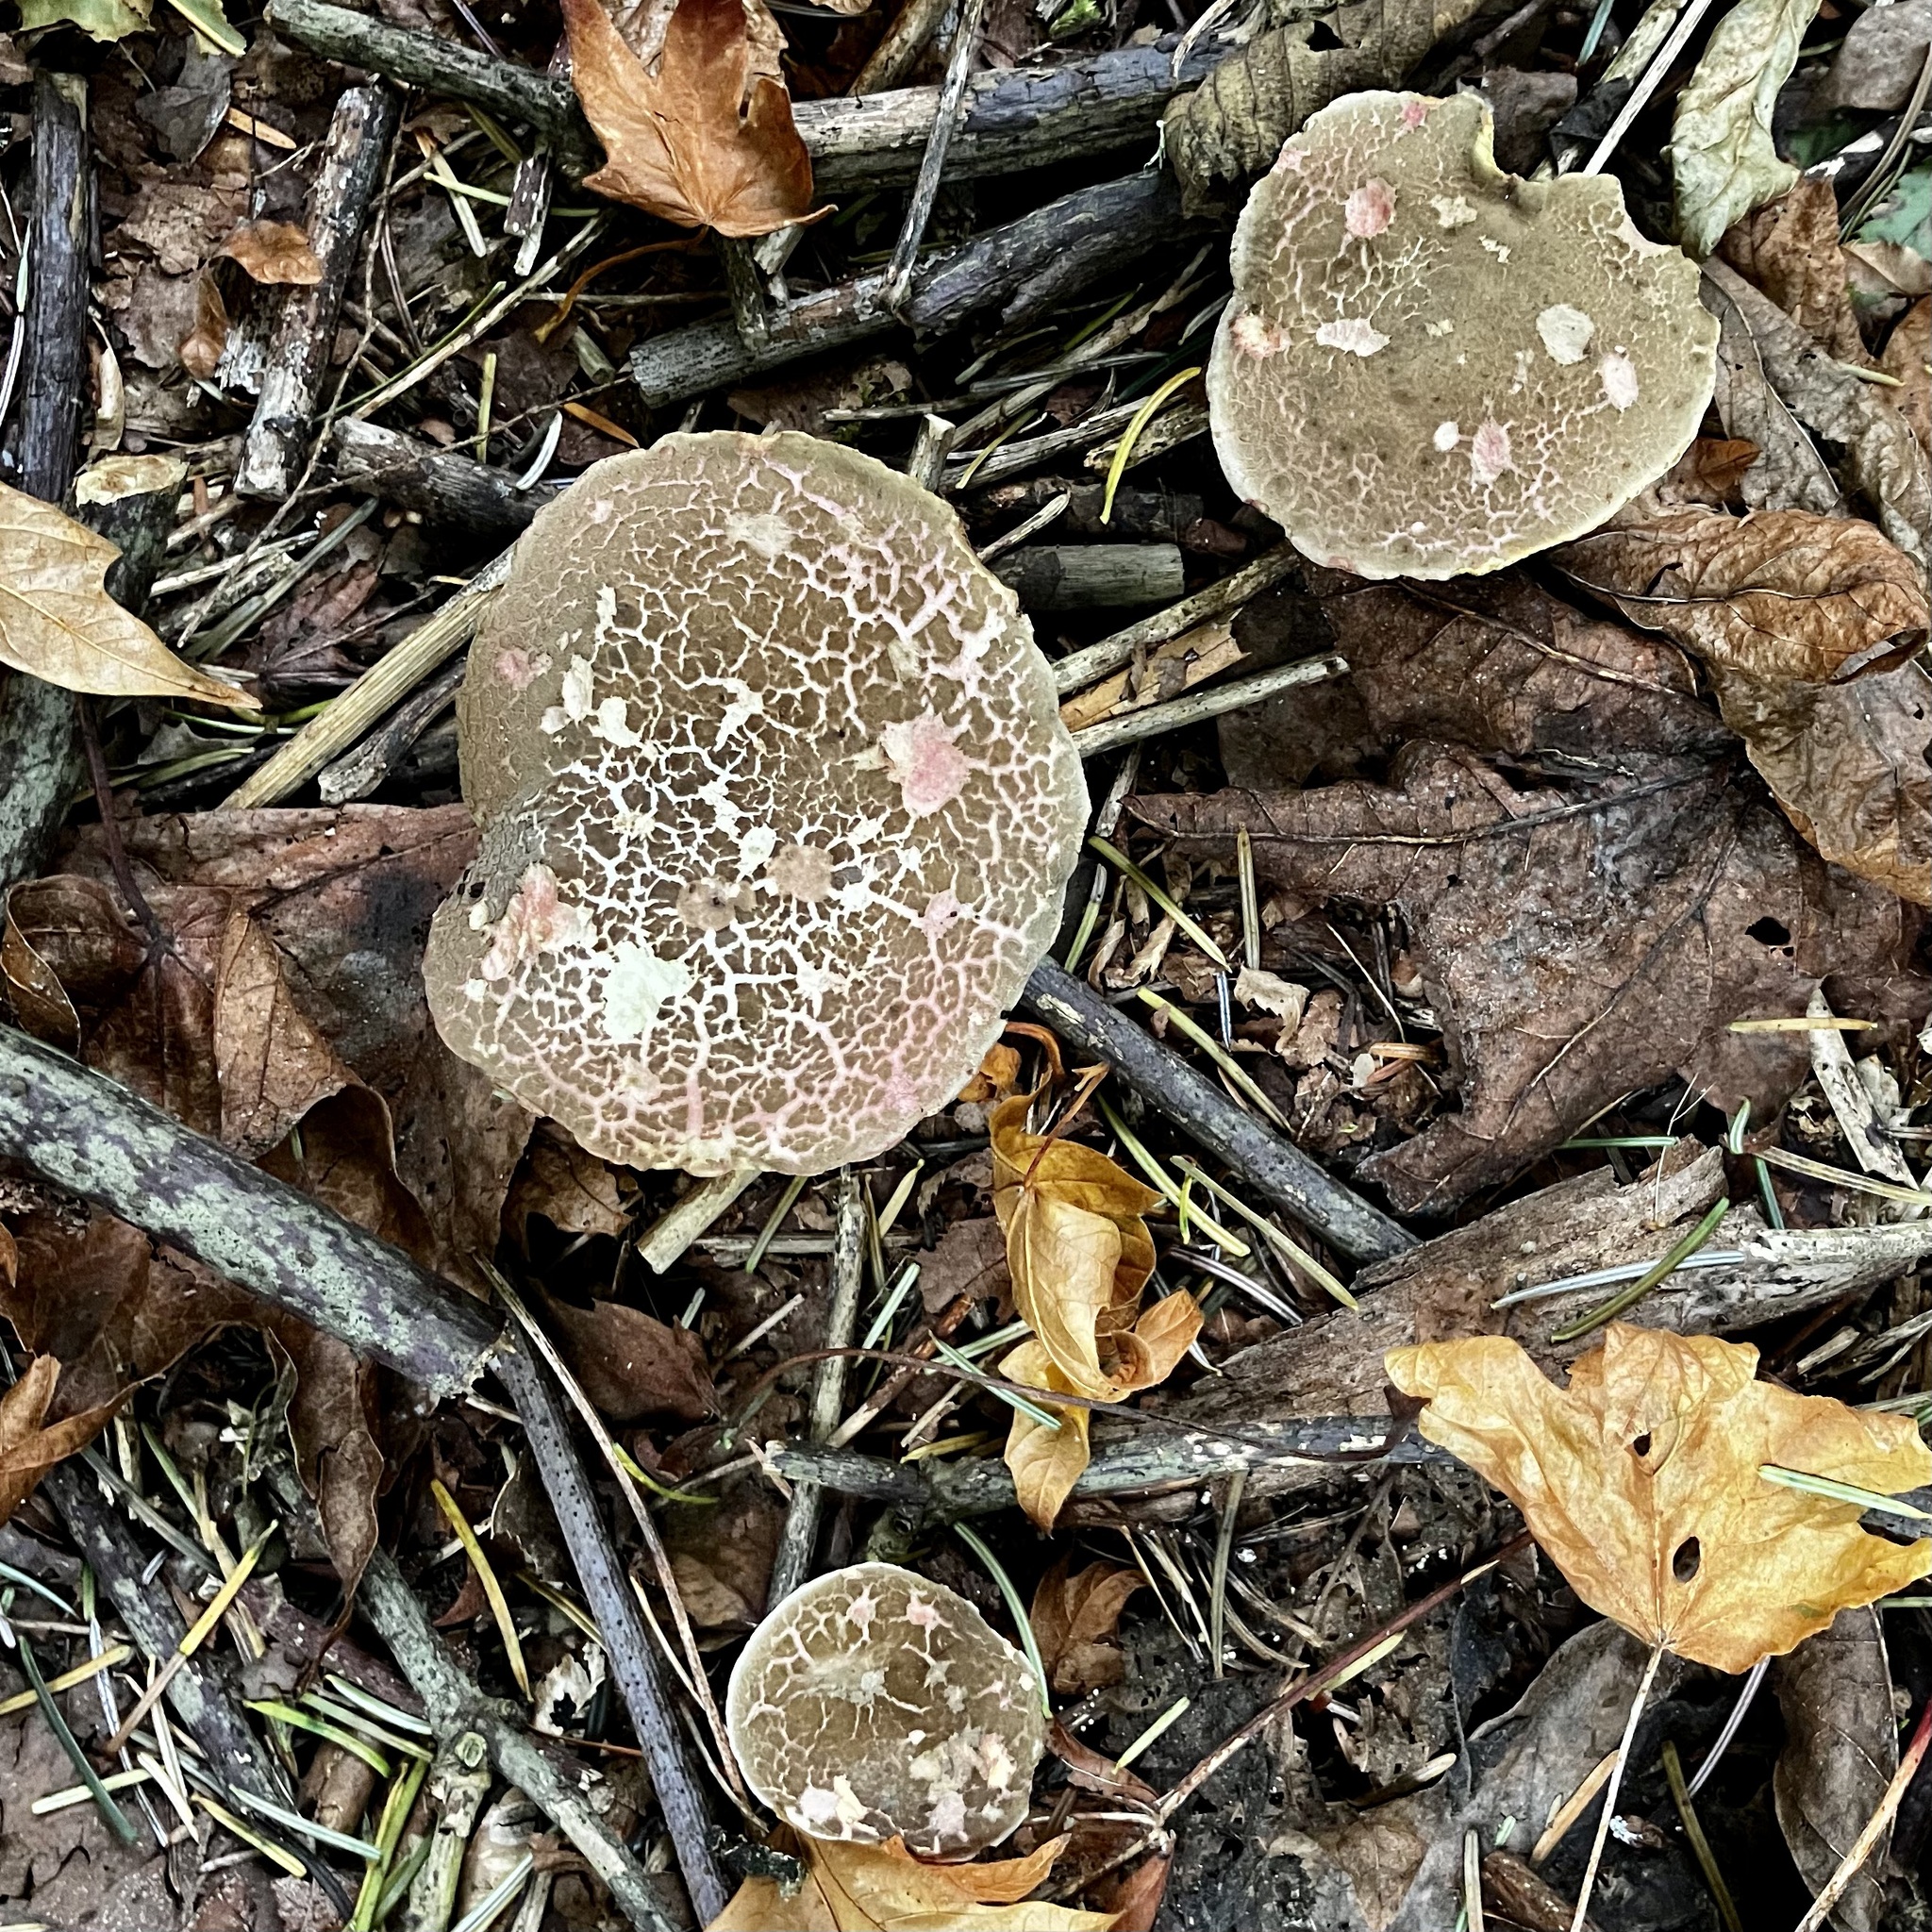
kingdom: Fungi
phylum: Basidiomycota
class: Agaricomycetes
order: Boletales
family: Boletaceae
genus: Xerocomellus
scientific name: Xerocomellus diffractus
